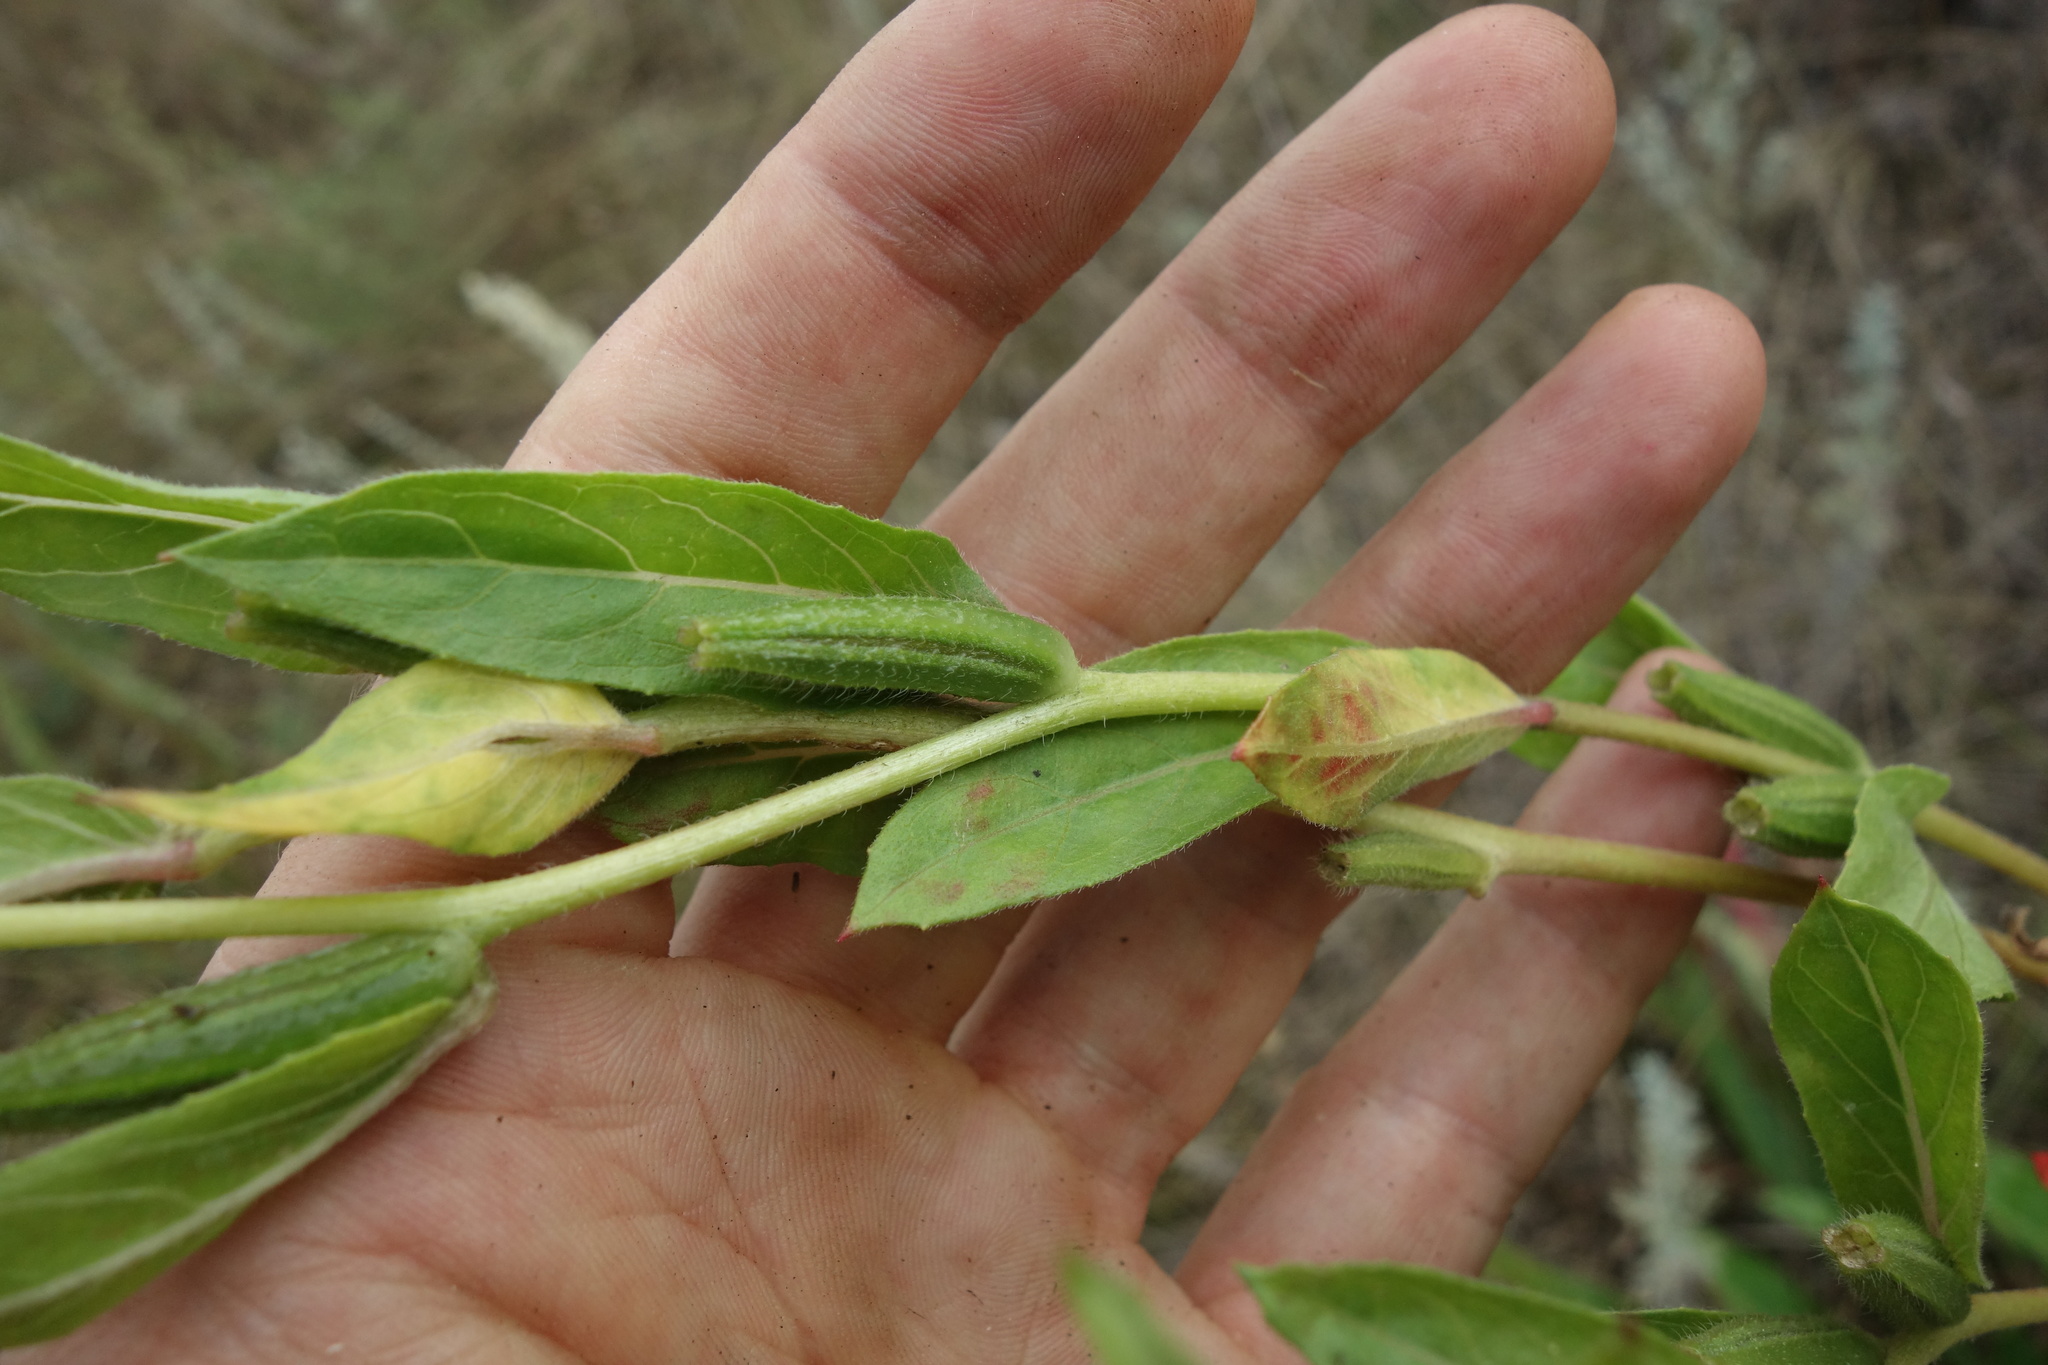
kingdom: Plantae
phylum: Tracheophyta
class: Magnoliopsida
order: Myrtales
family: Onagraceae
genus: Oenothera
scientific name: Oenothera biennis
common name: Common evening-primrose
